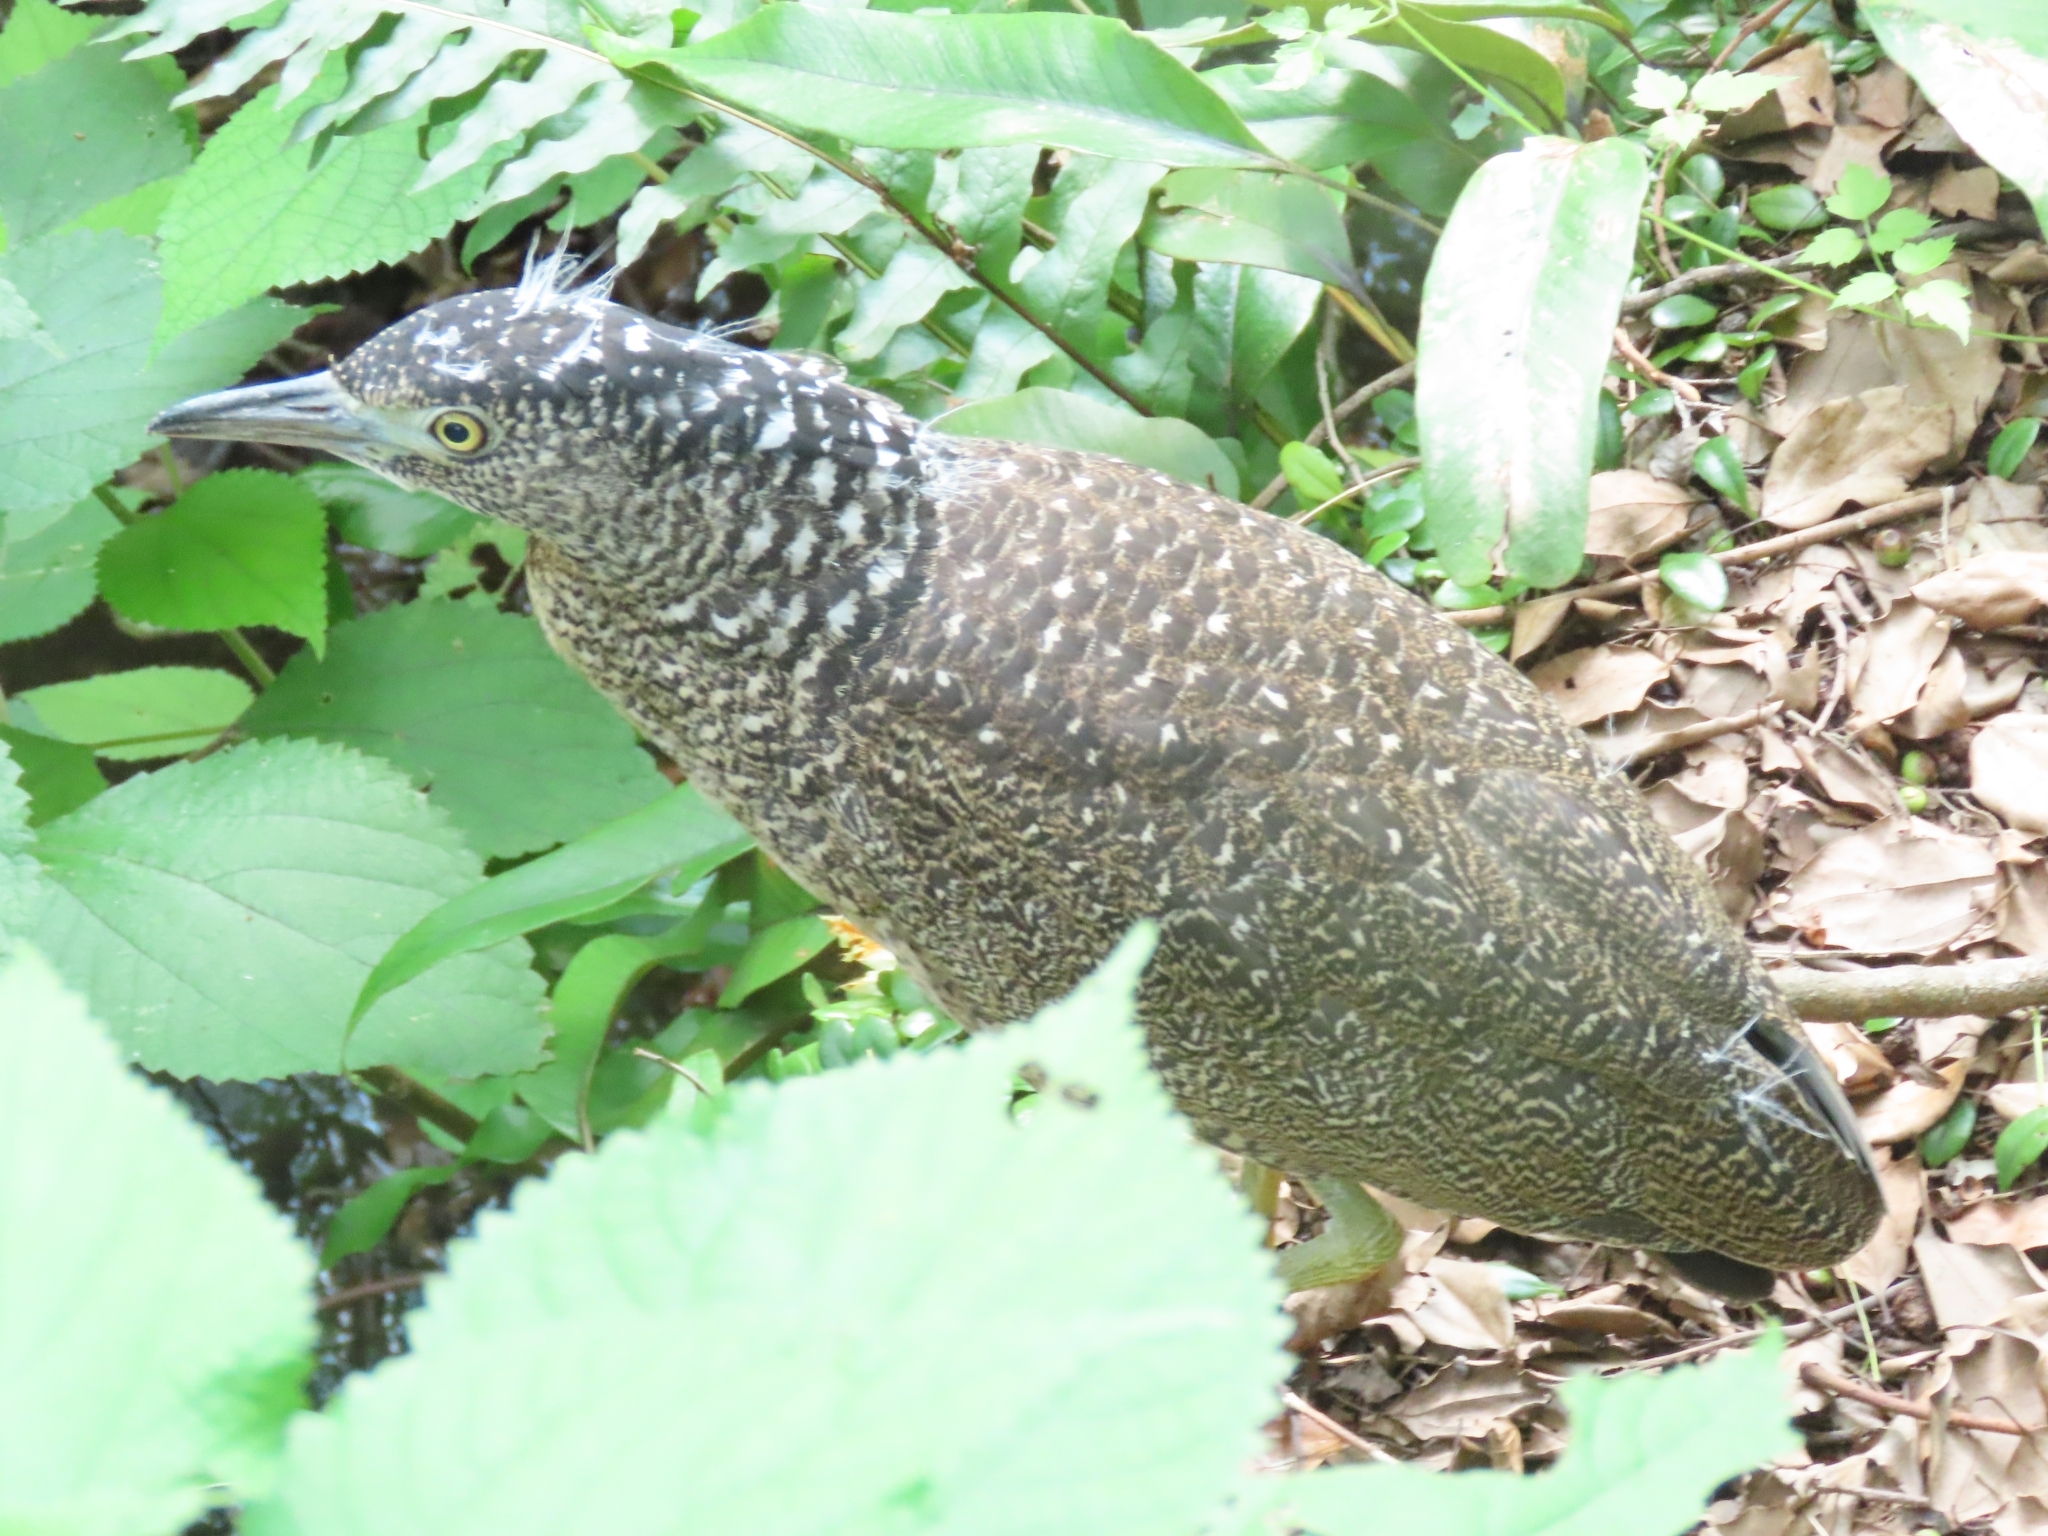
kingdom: Animalia
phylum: Chordata
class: Aves
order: Pelecaniformes
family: Ardeidae
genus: Gorsachius
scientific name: Gorsachius melanolophus
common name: Malayan night heron
